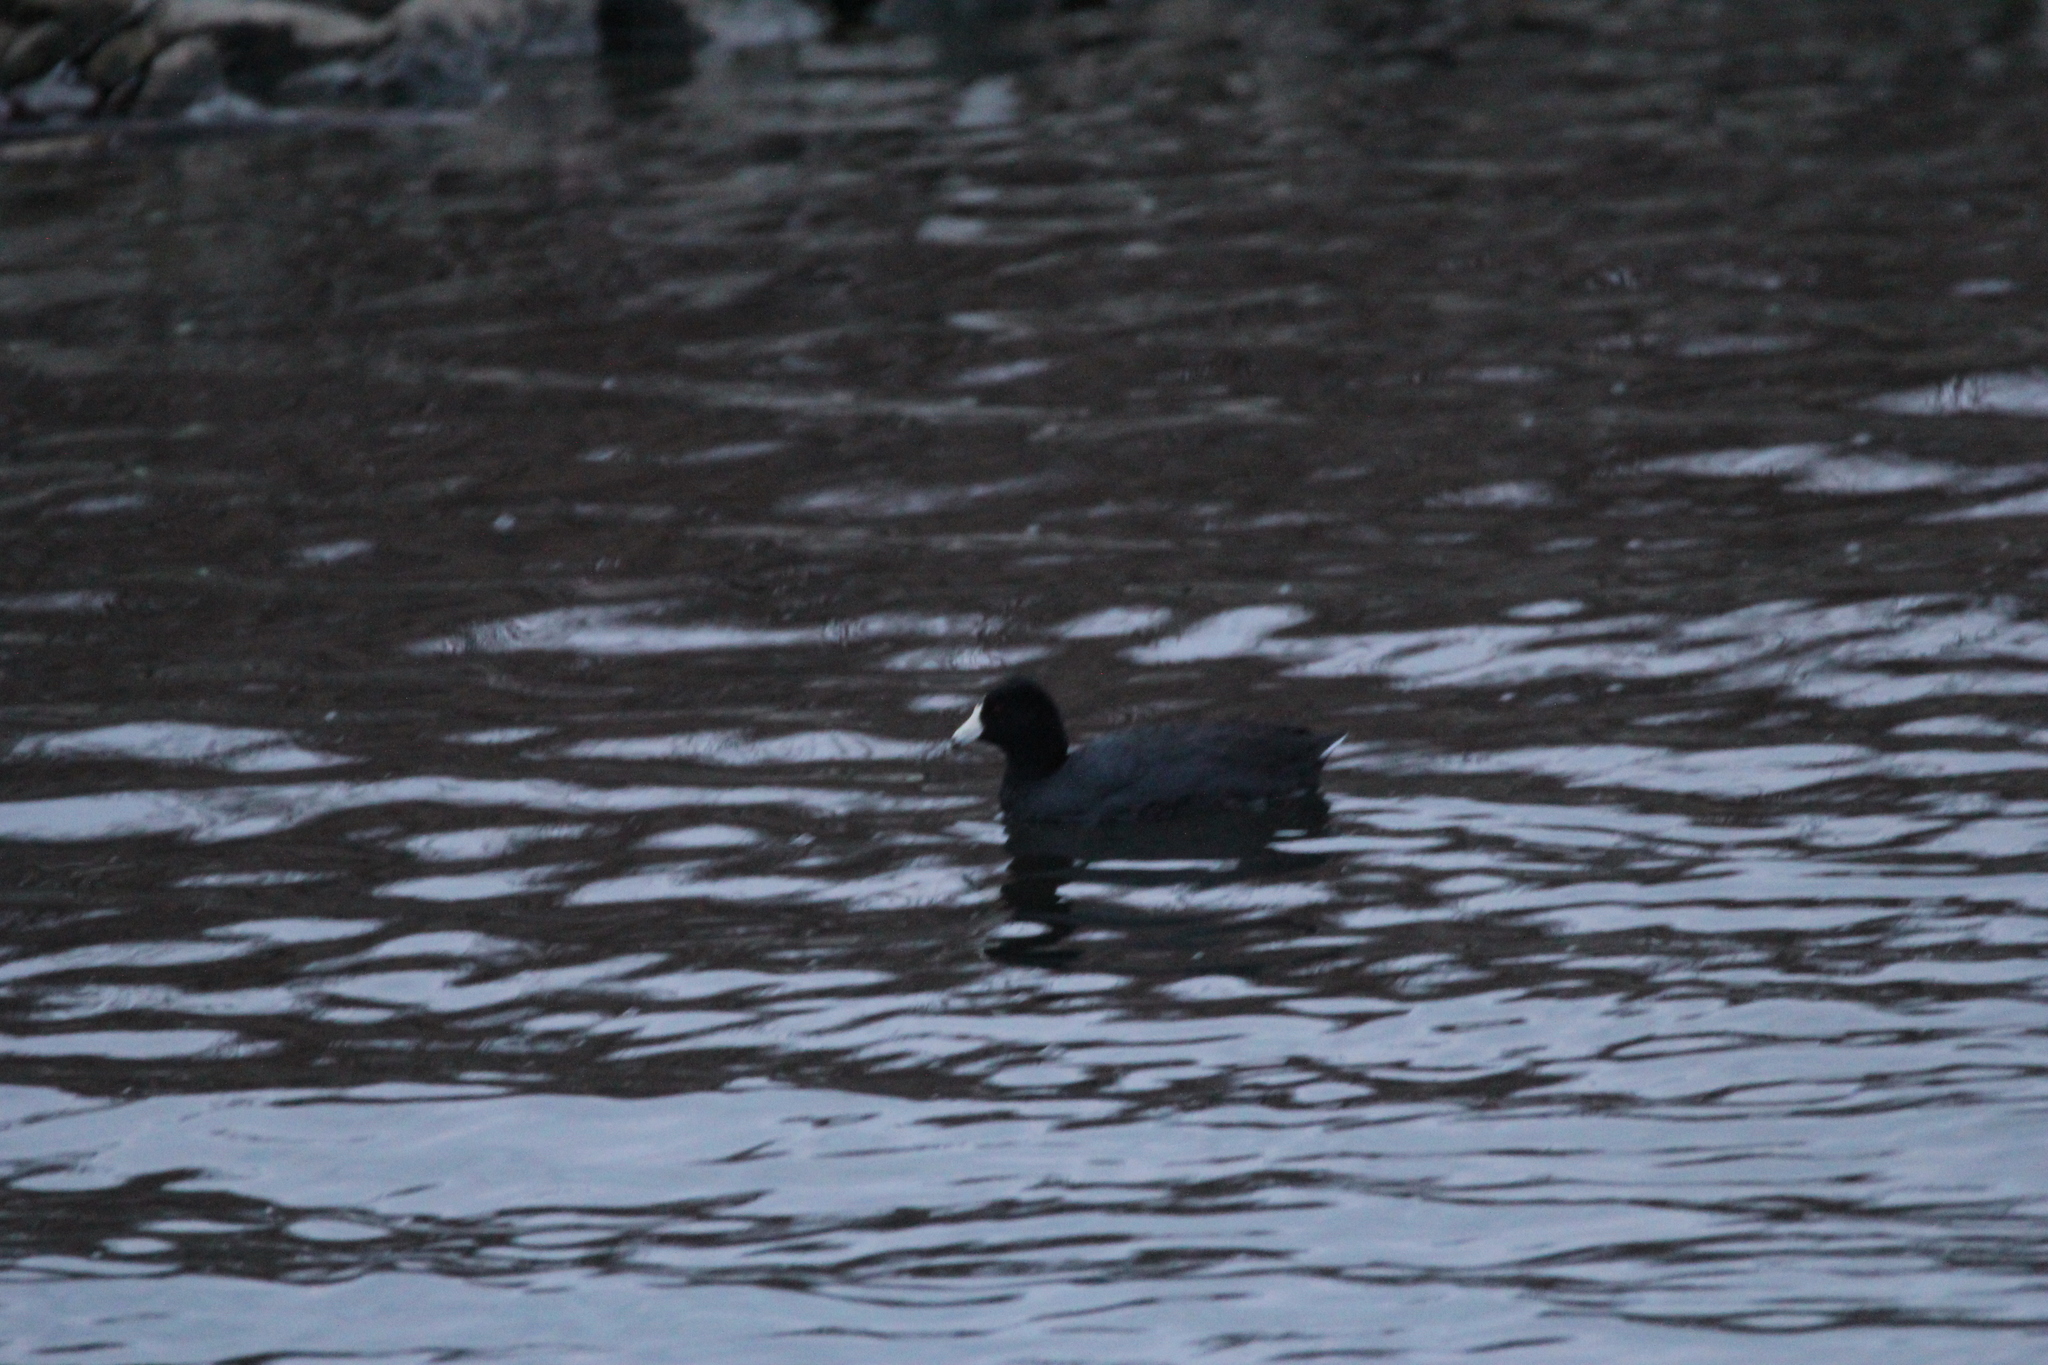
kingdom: Animalia
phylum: Chordata
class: Aves
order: Gruiformes
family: Rallidae
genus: Fulica
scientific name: Fulica americana
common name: American coot
